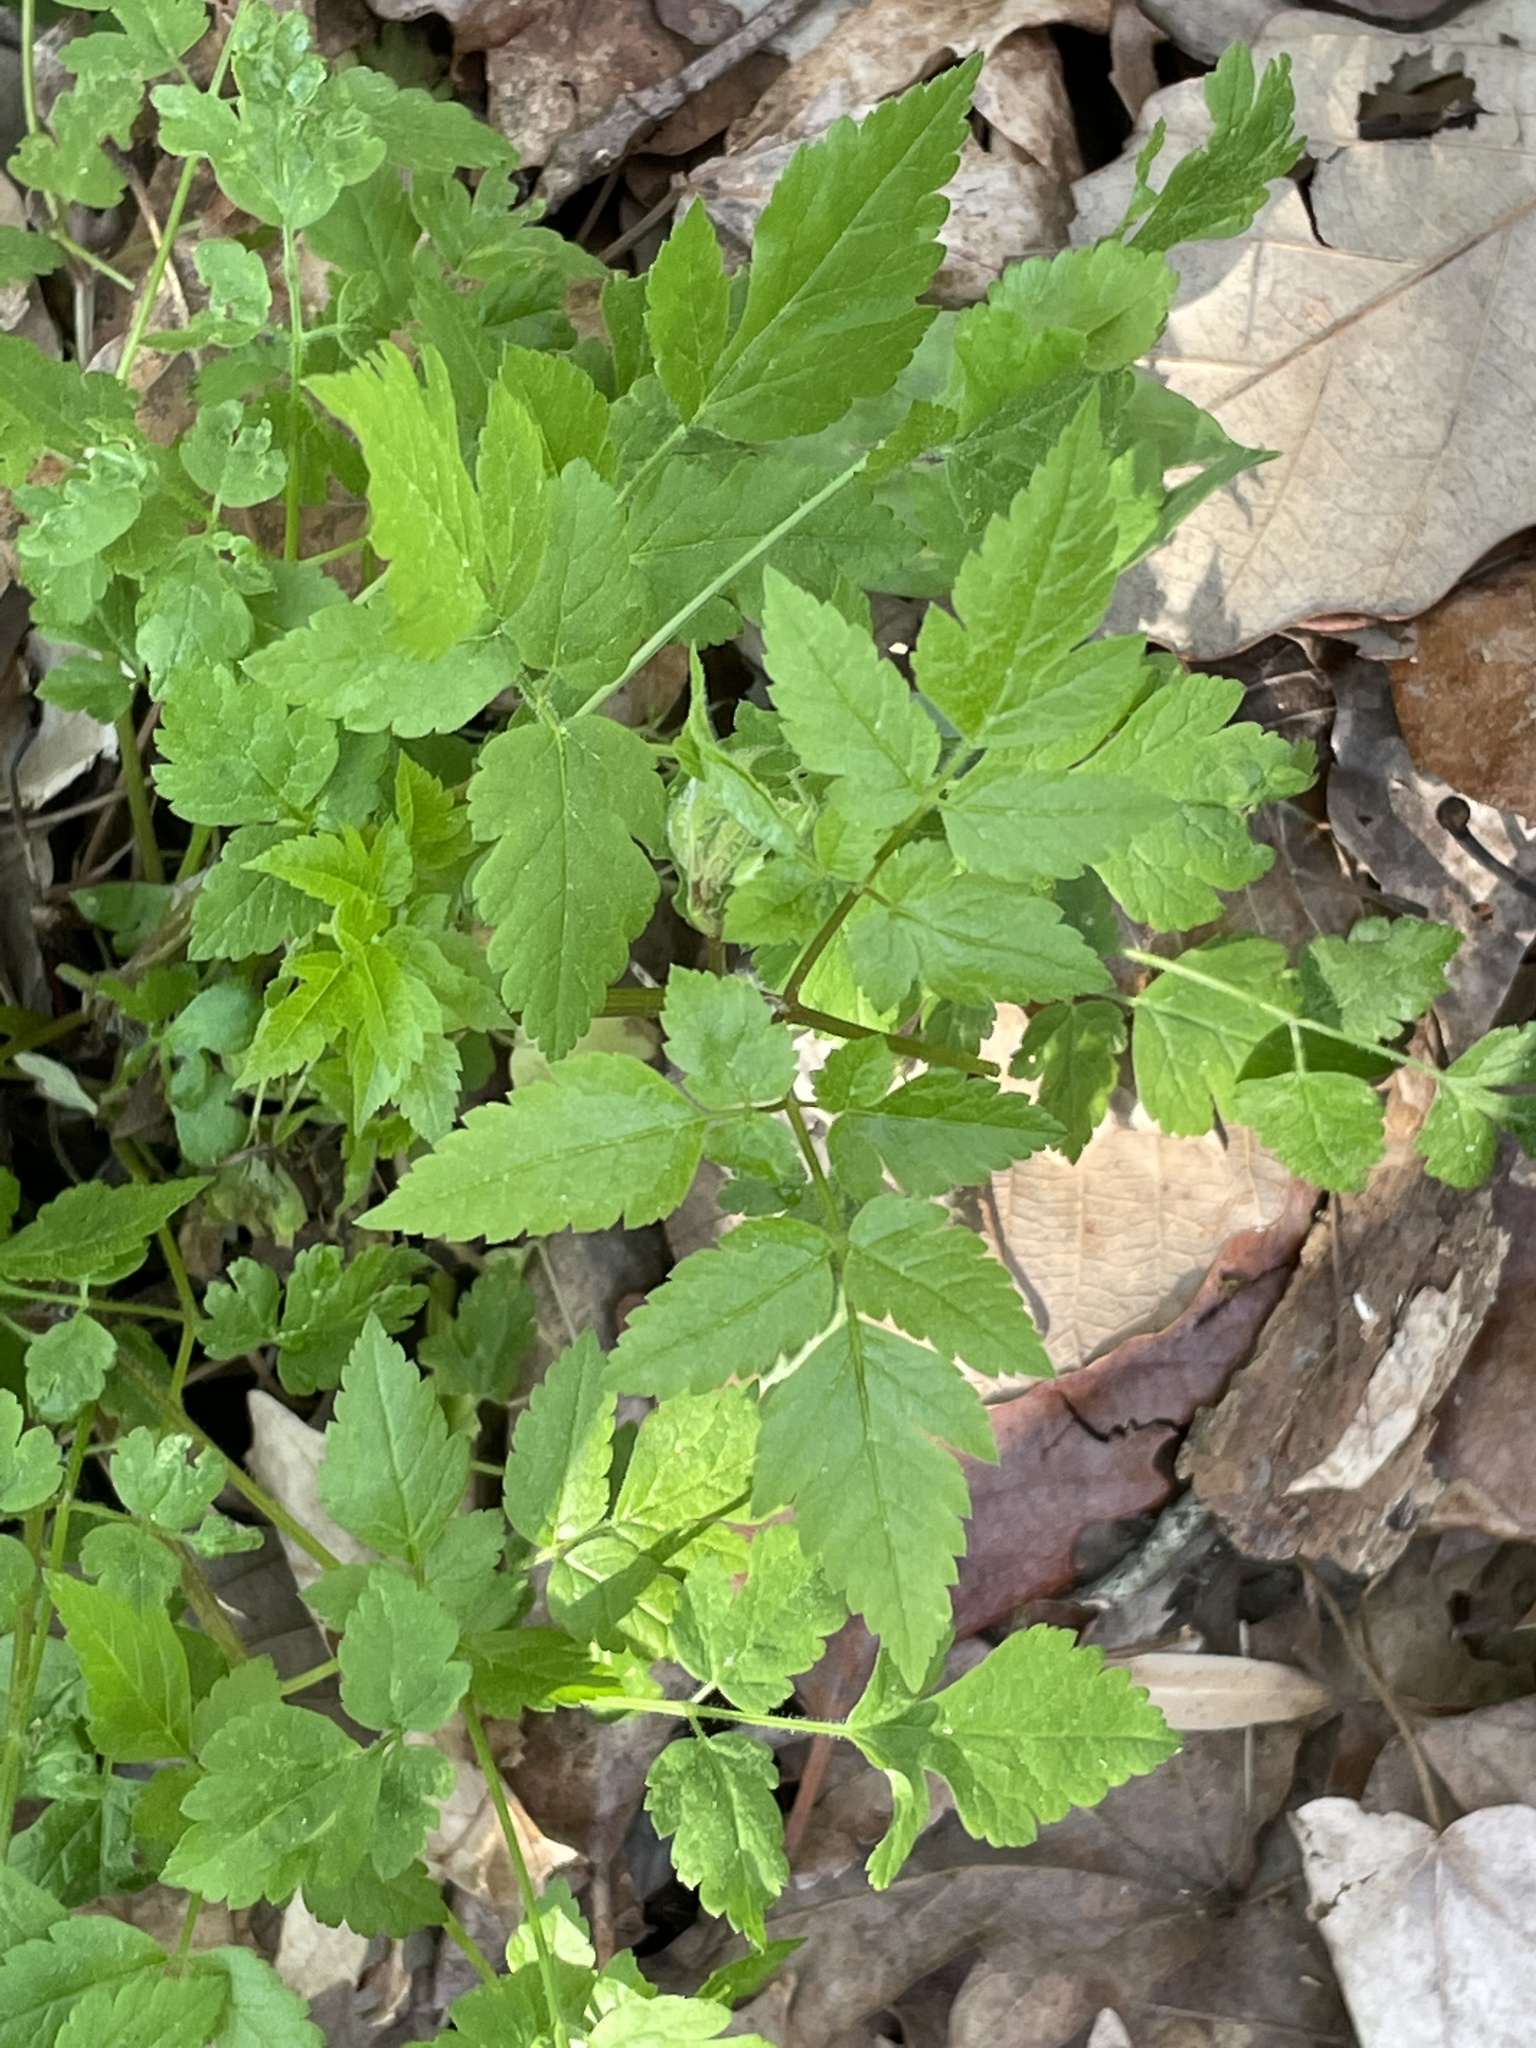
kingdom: Plantae
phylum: Tracheophyta
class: Magnoliopsida
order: Apiales
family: Apiaceae
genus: Osmorhiza
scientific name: Osmorhiza longistylis
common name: Smooth sweet cicely
